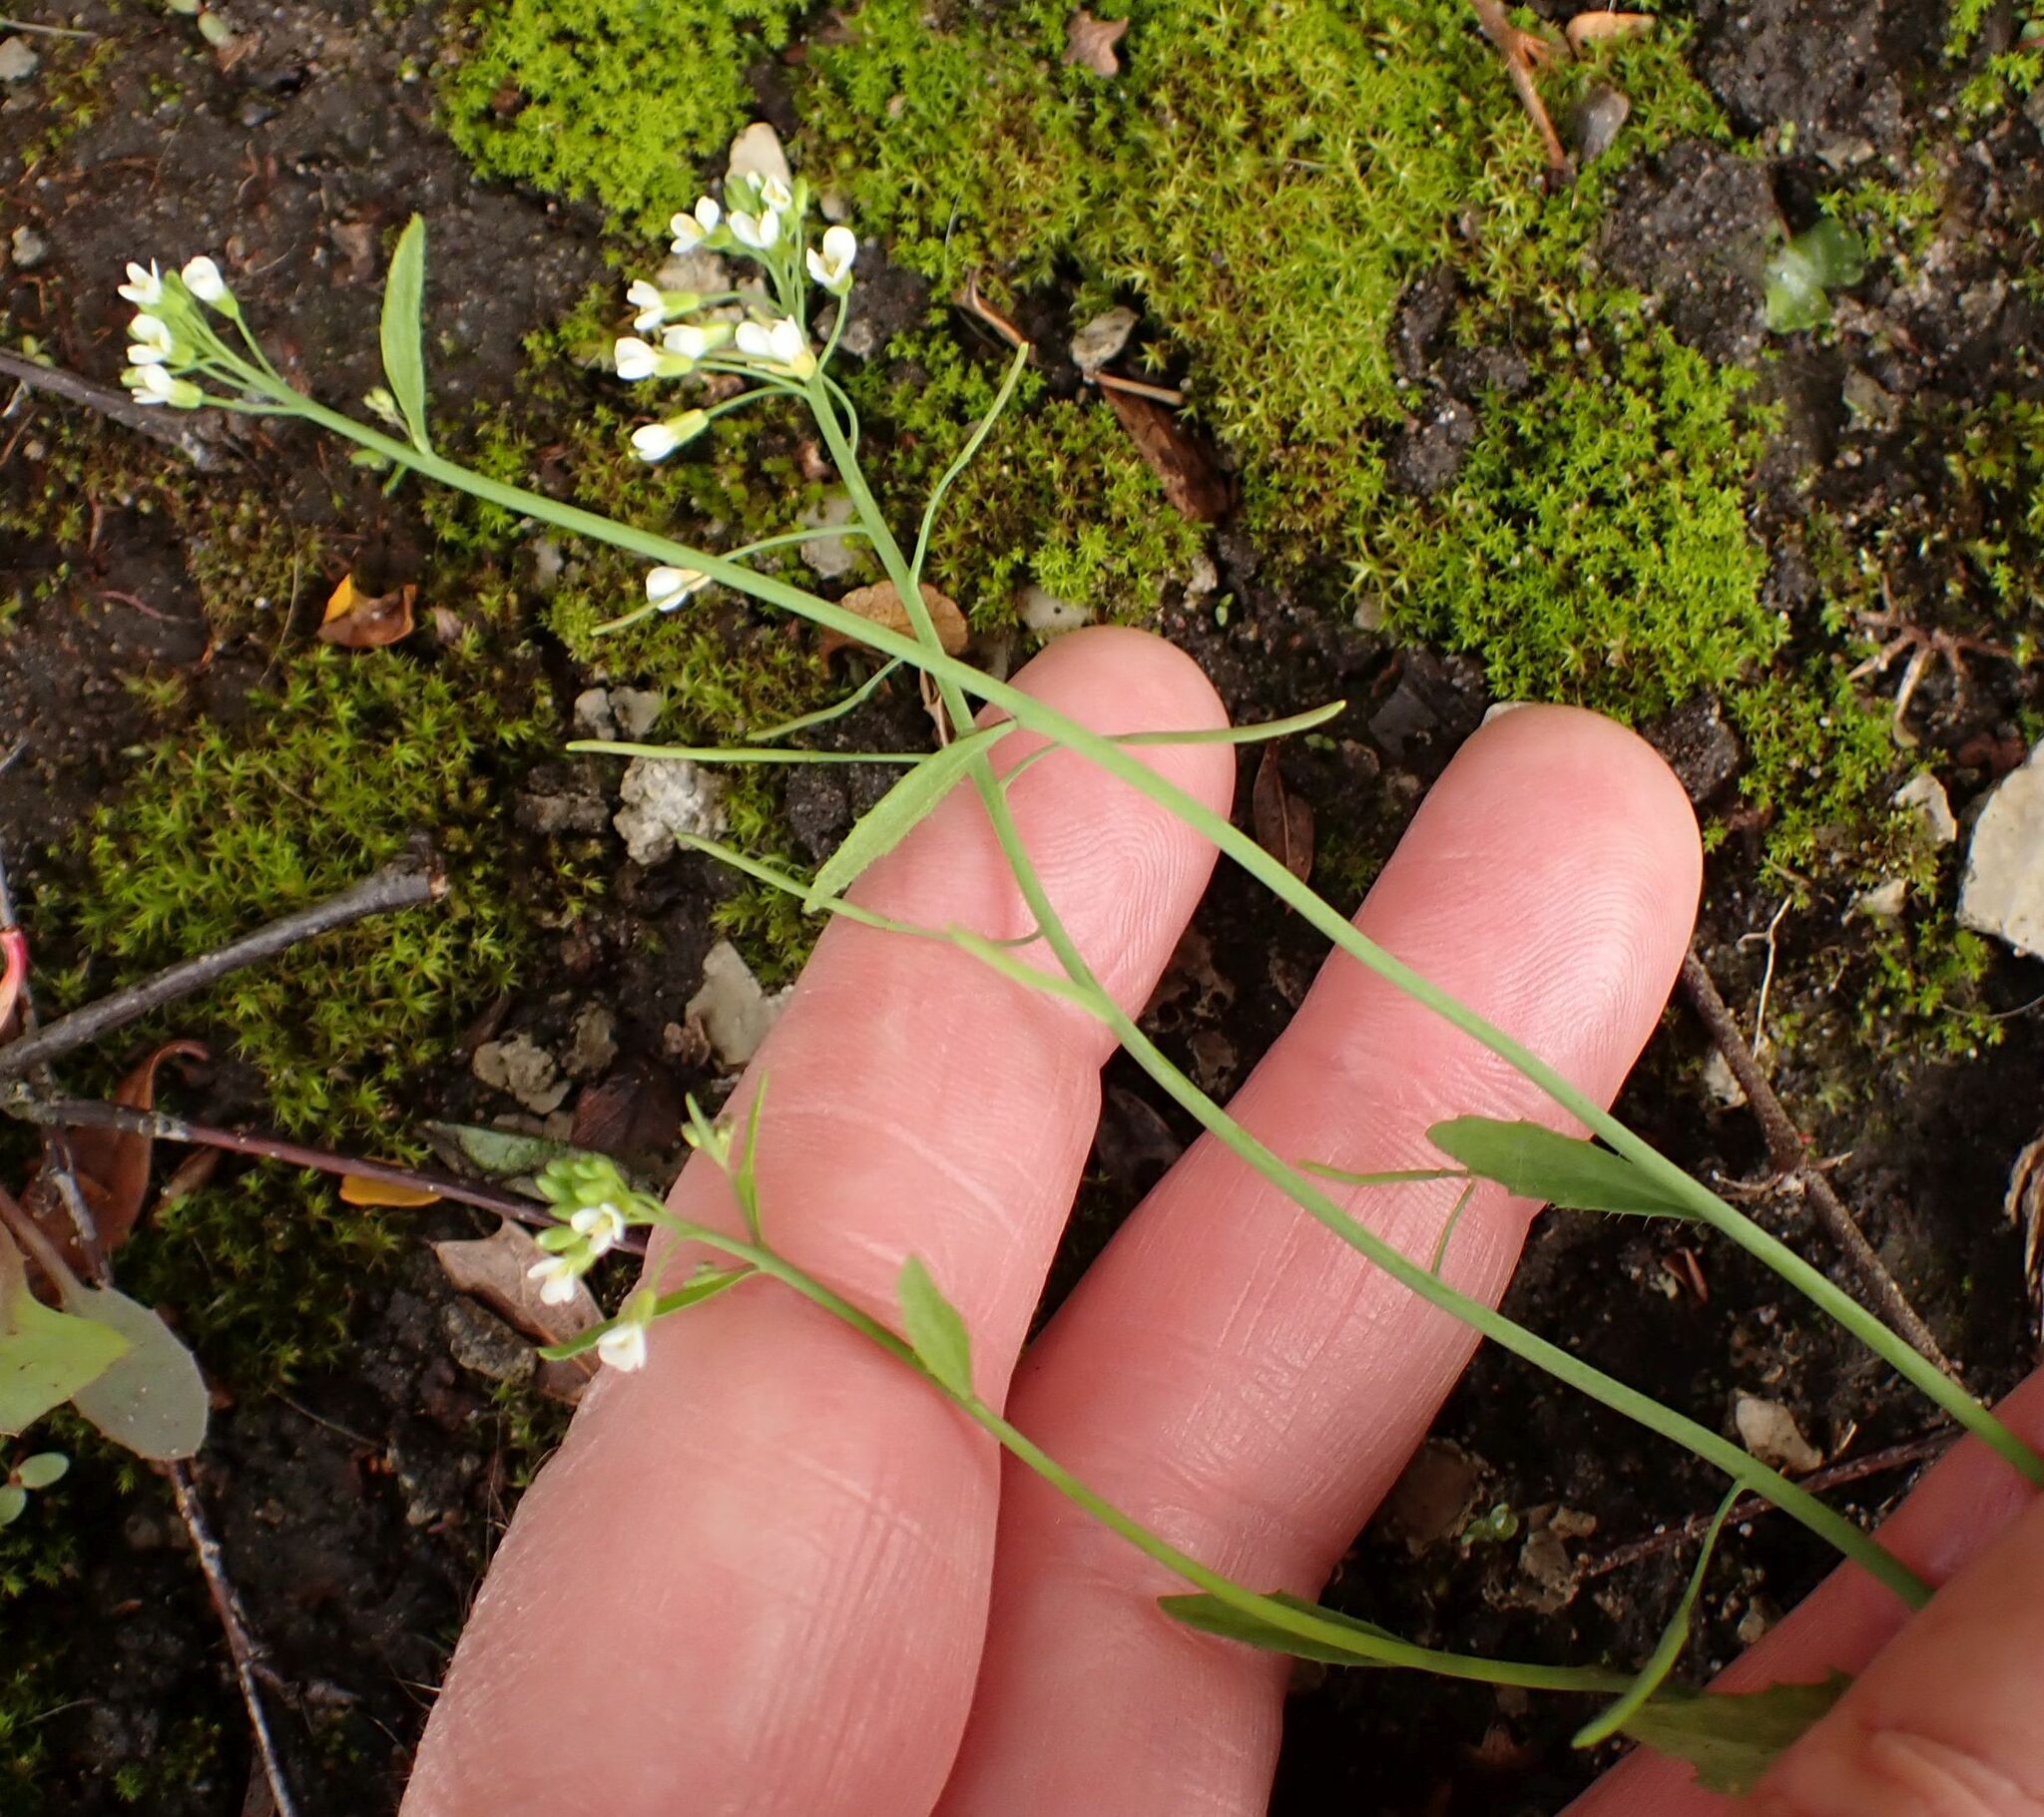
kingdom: Plantae
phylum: Tracheophyta
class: Magnoliopsida
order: Brassicales
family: Brassicaceae
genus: Arabidopsis
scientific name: Arabidopsis thaliana
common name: Thale cress
